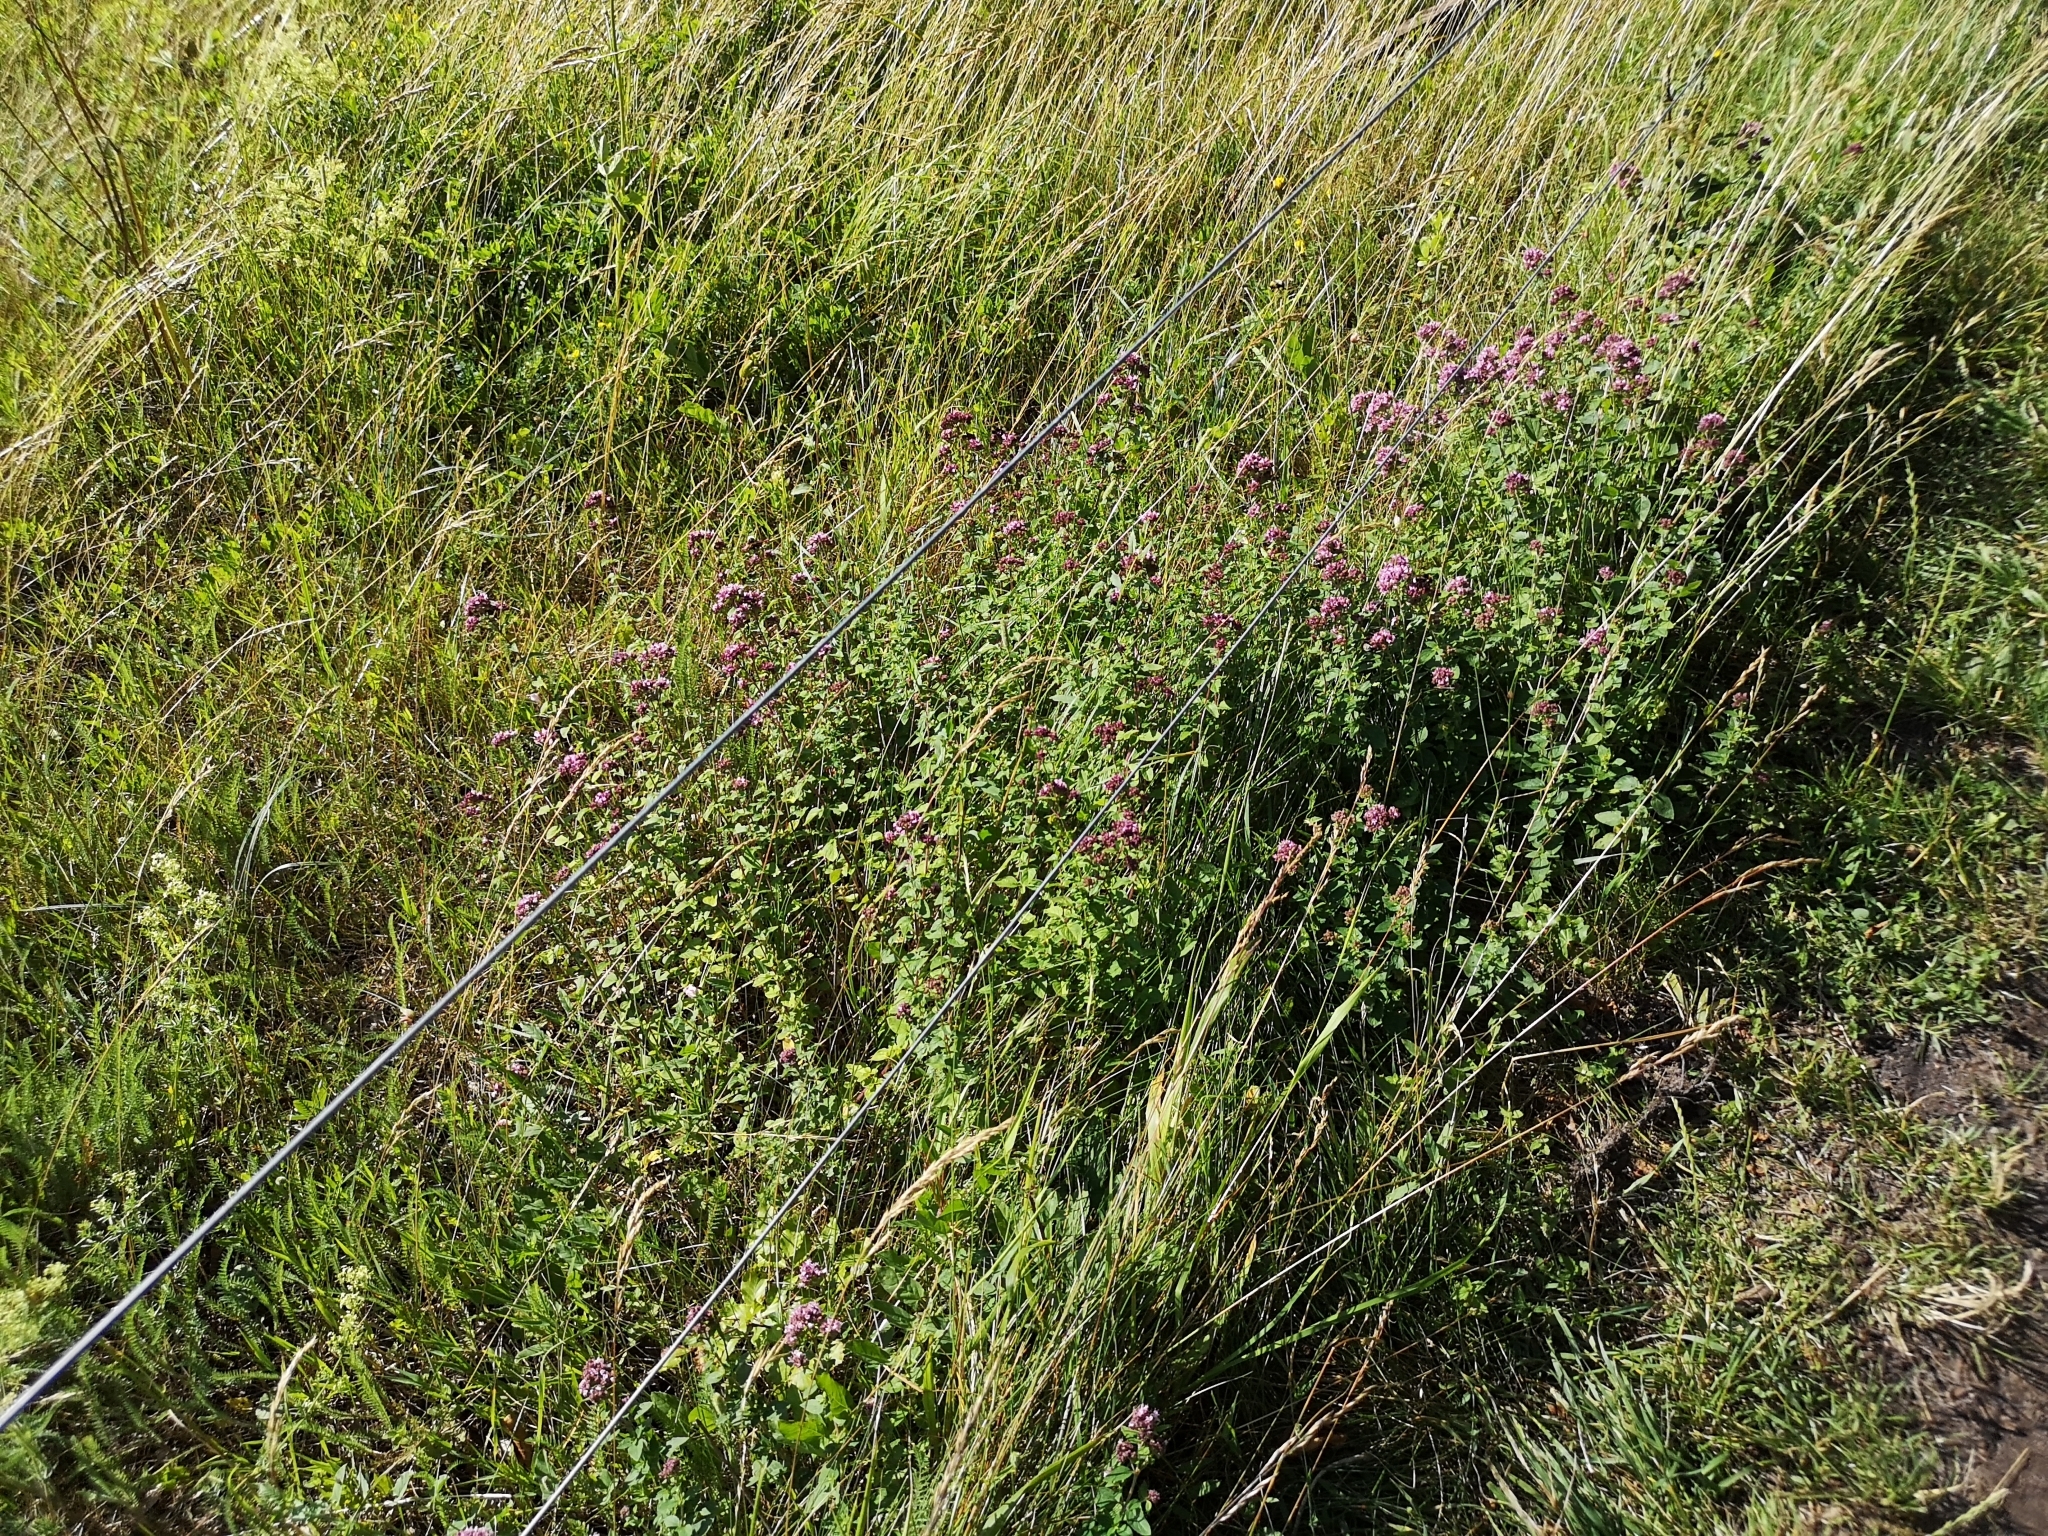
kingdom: Plantae
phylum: Tracheophyta
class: Magnoliopsida
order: Lamiales
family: Lamiaceae
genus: Origanum
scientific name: Origanum vulgare
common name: Wild marjoram
